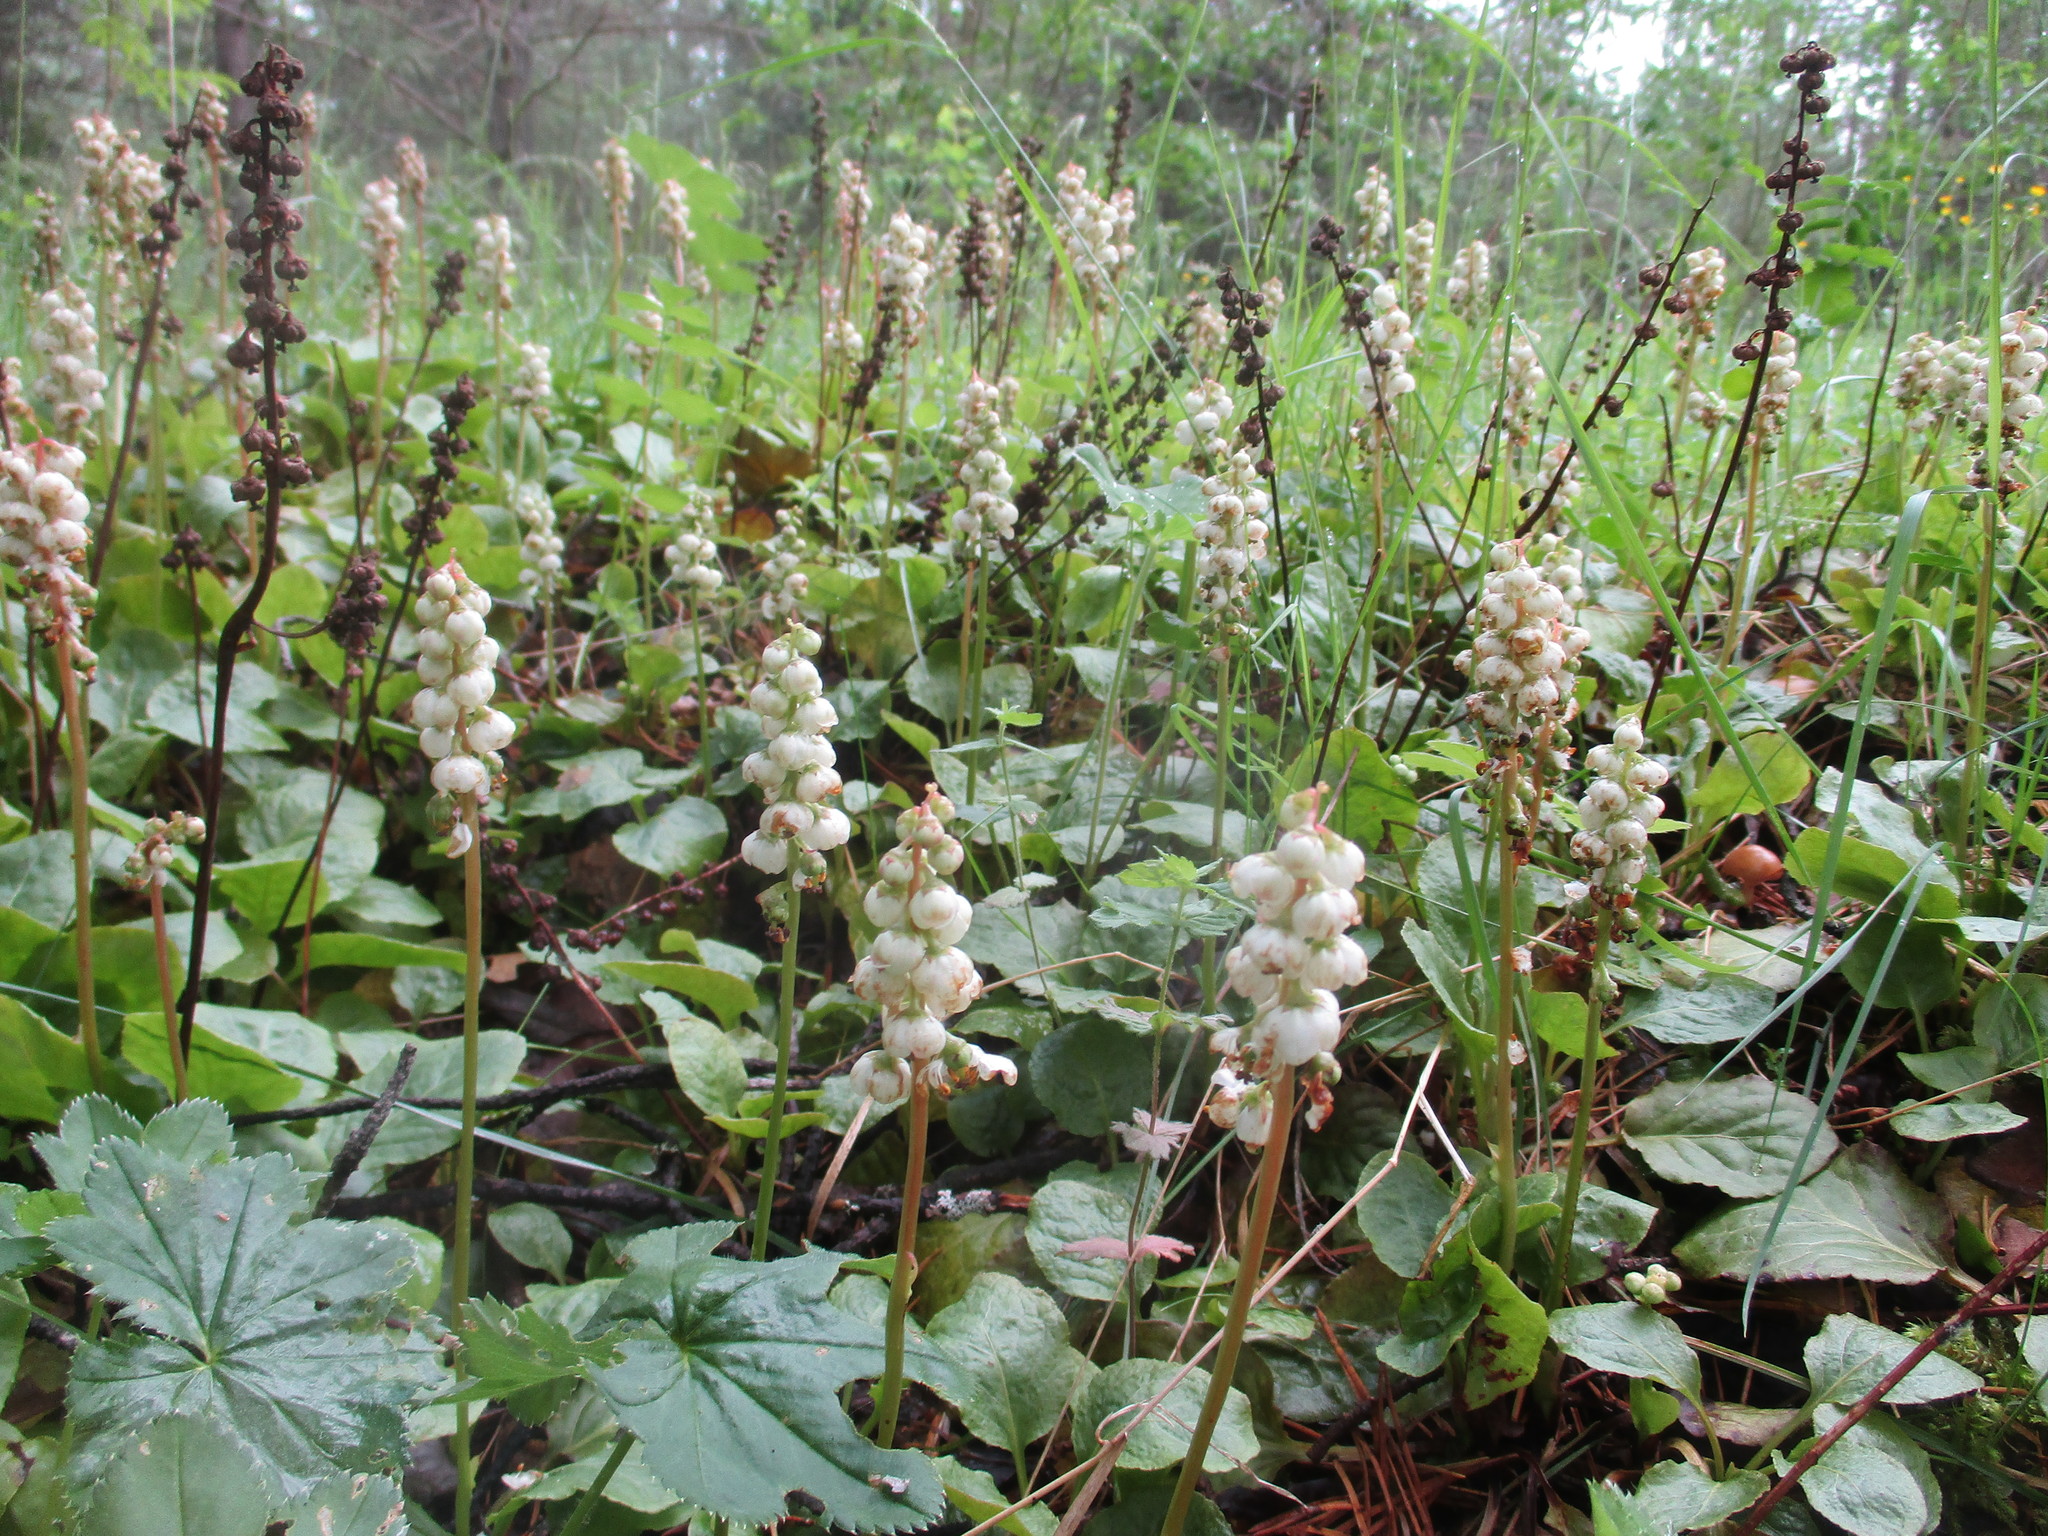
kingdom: Plantae
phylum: Tracheophyta
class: Magnoliopsida
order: Ericales
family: Ericaceae
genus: Pyrola
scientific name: Pyrola minor
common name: Common wintergreen
